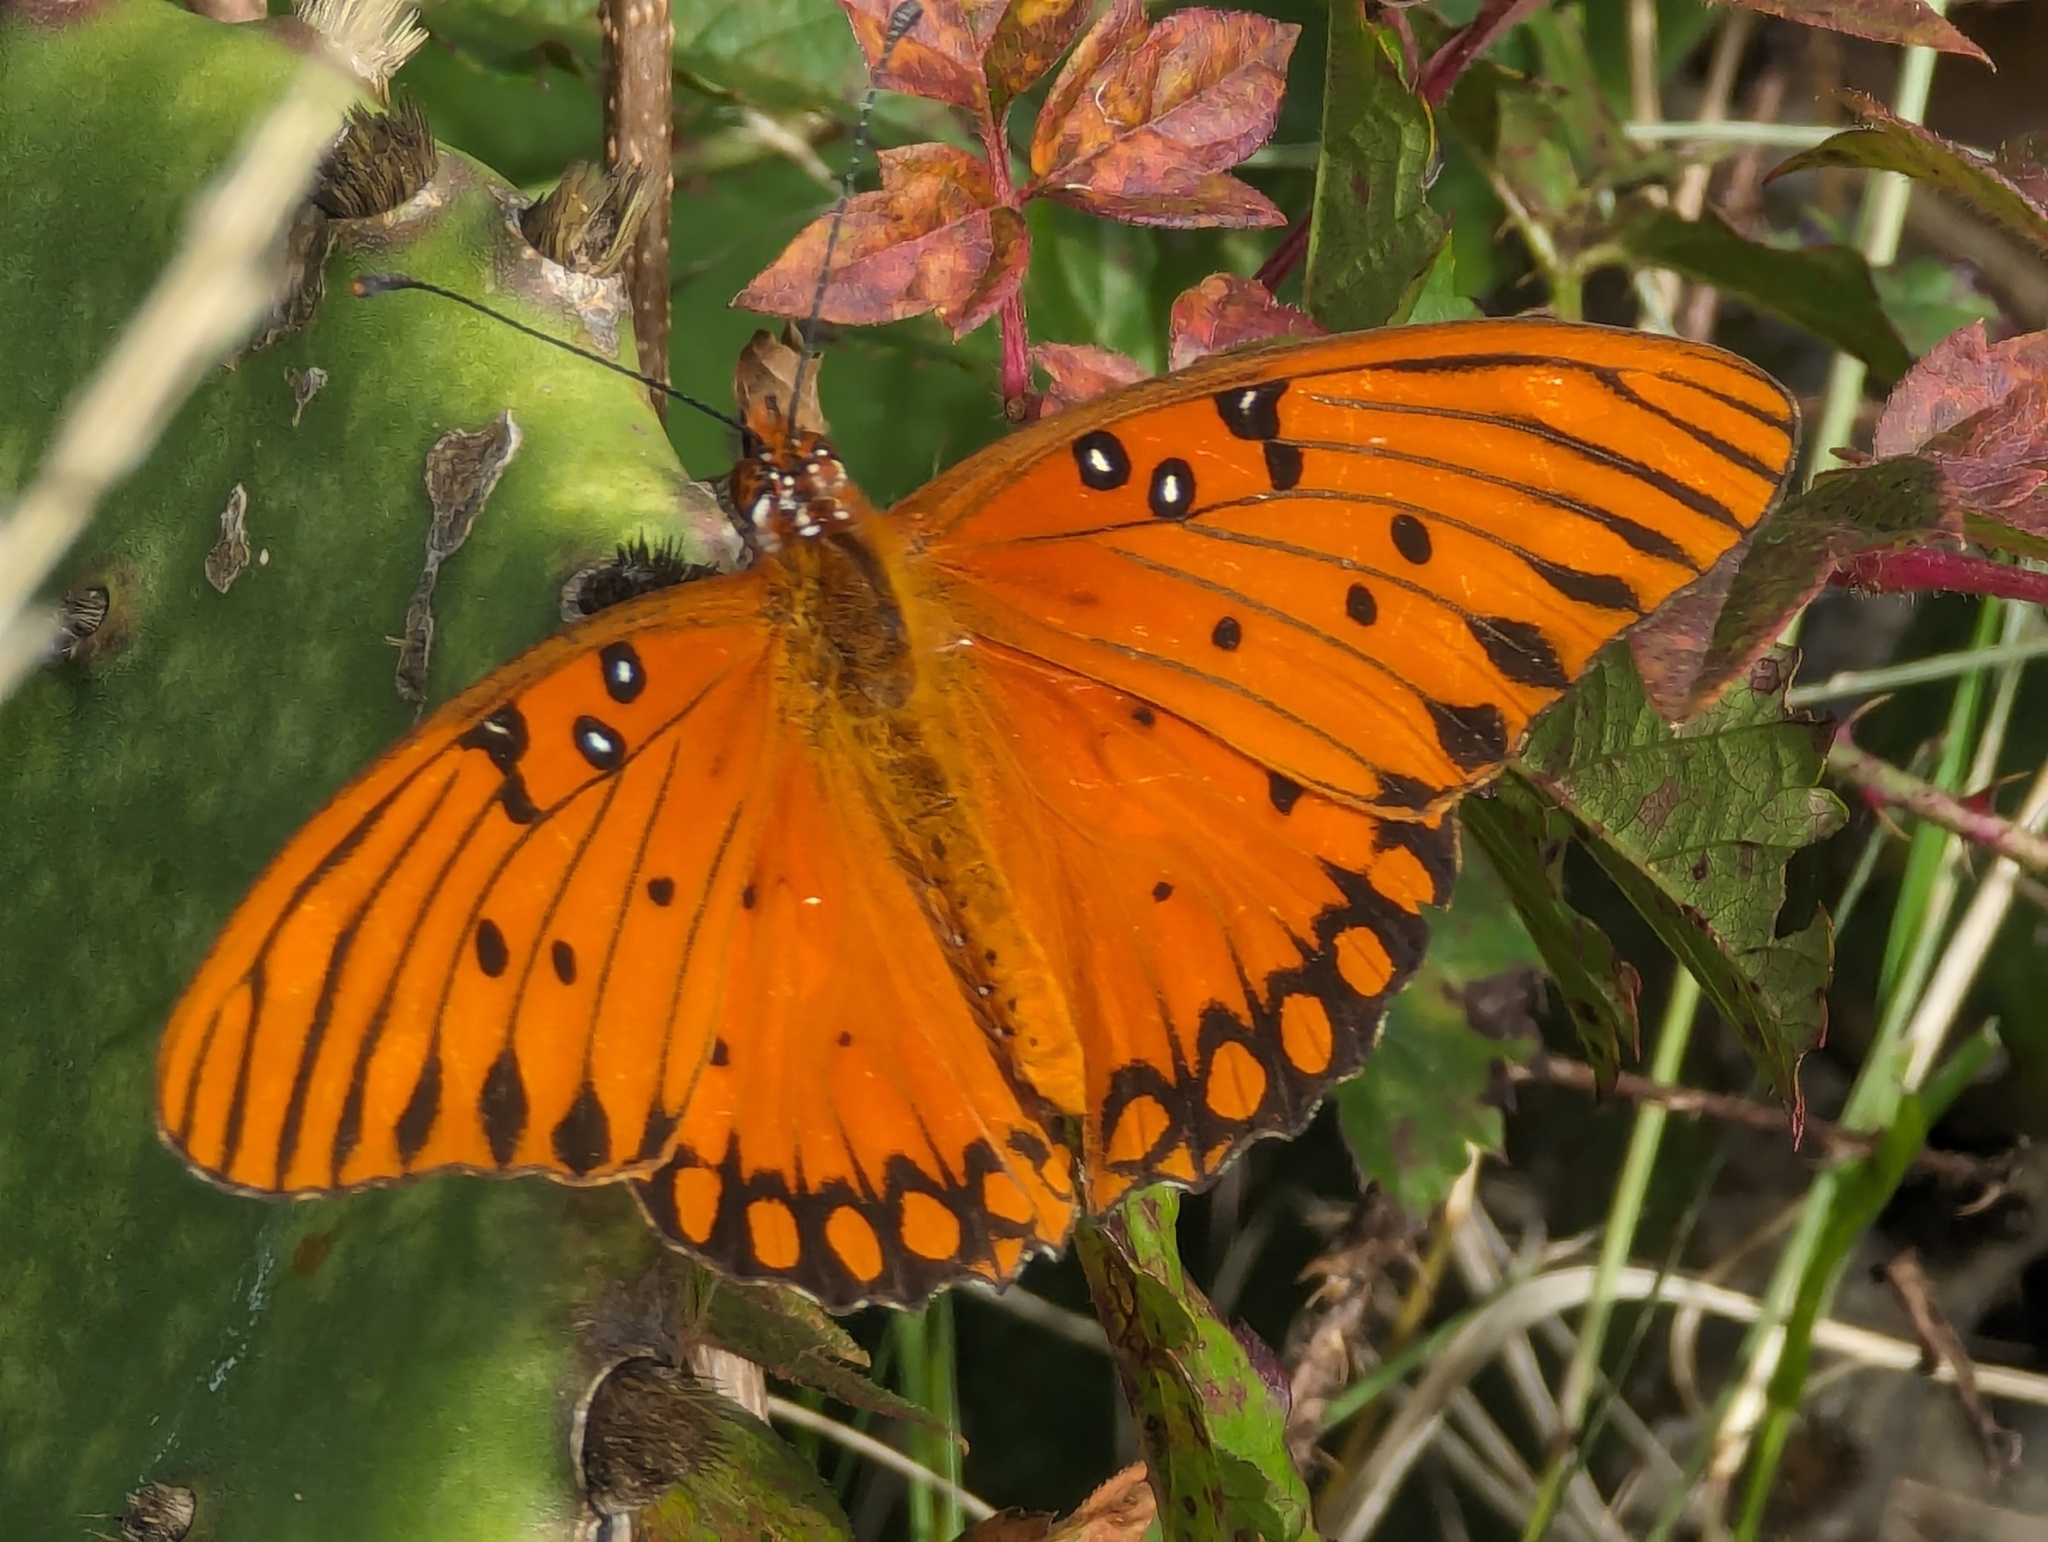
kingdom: Animalia
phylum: Arthropoda
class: Insecta
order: Lepidoptera
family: Nymphalidae
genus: Dione
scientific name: Dione vanillae
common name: Gulf fritillary
